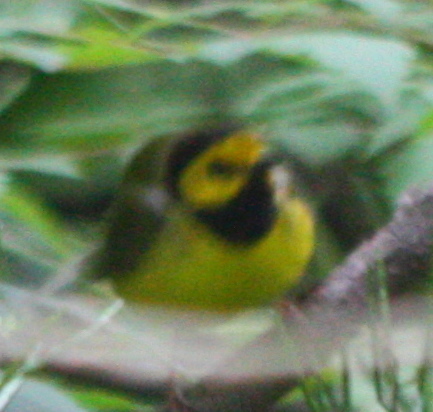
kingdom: Animalia
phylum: Chordata
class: Aves
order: Passeriformes
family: Parulidae
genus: Setophaga
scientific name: Setophaga citrina
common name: Hooded warbler
